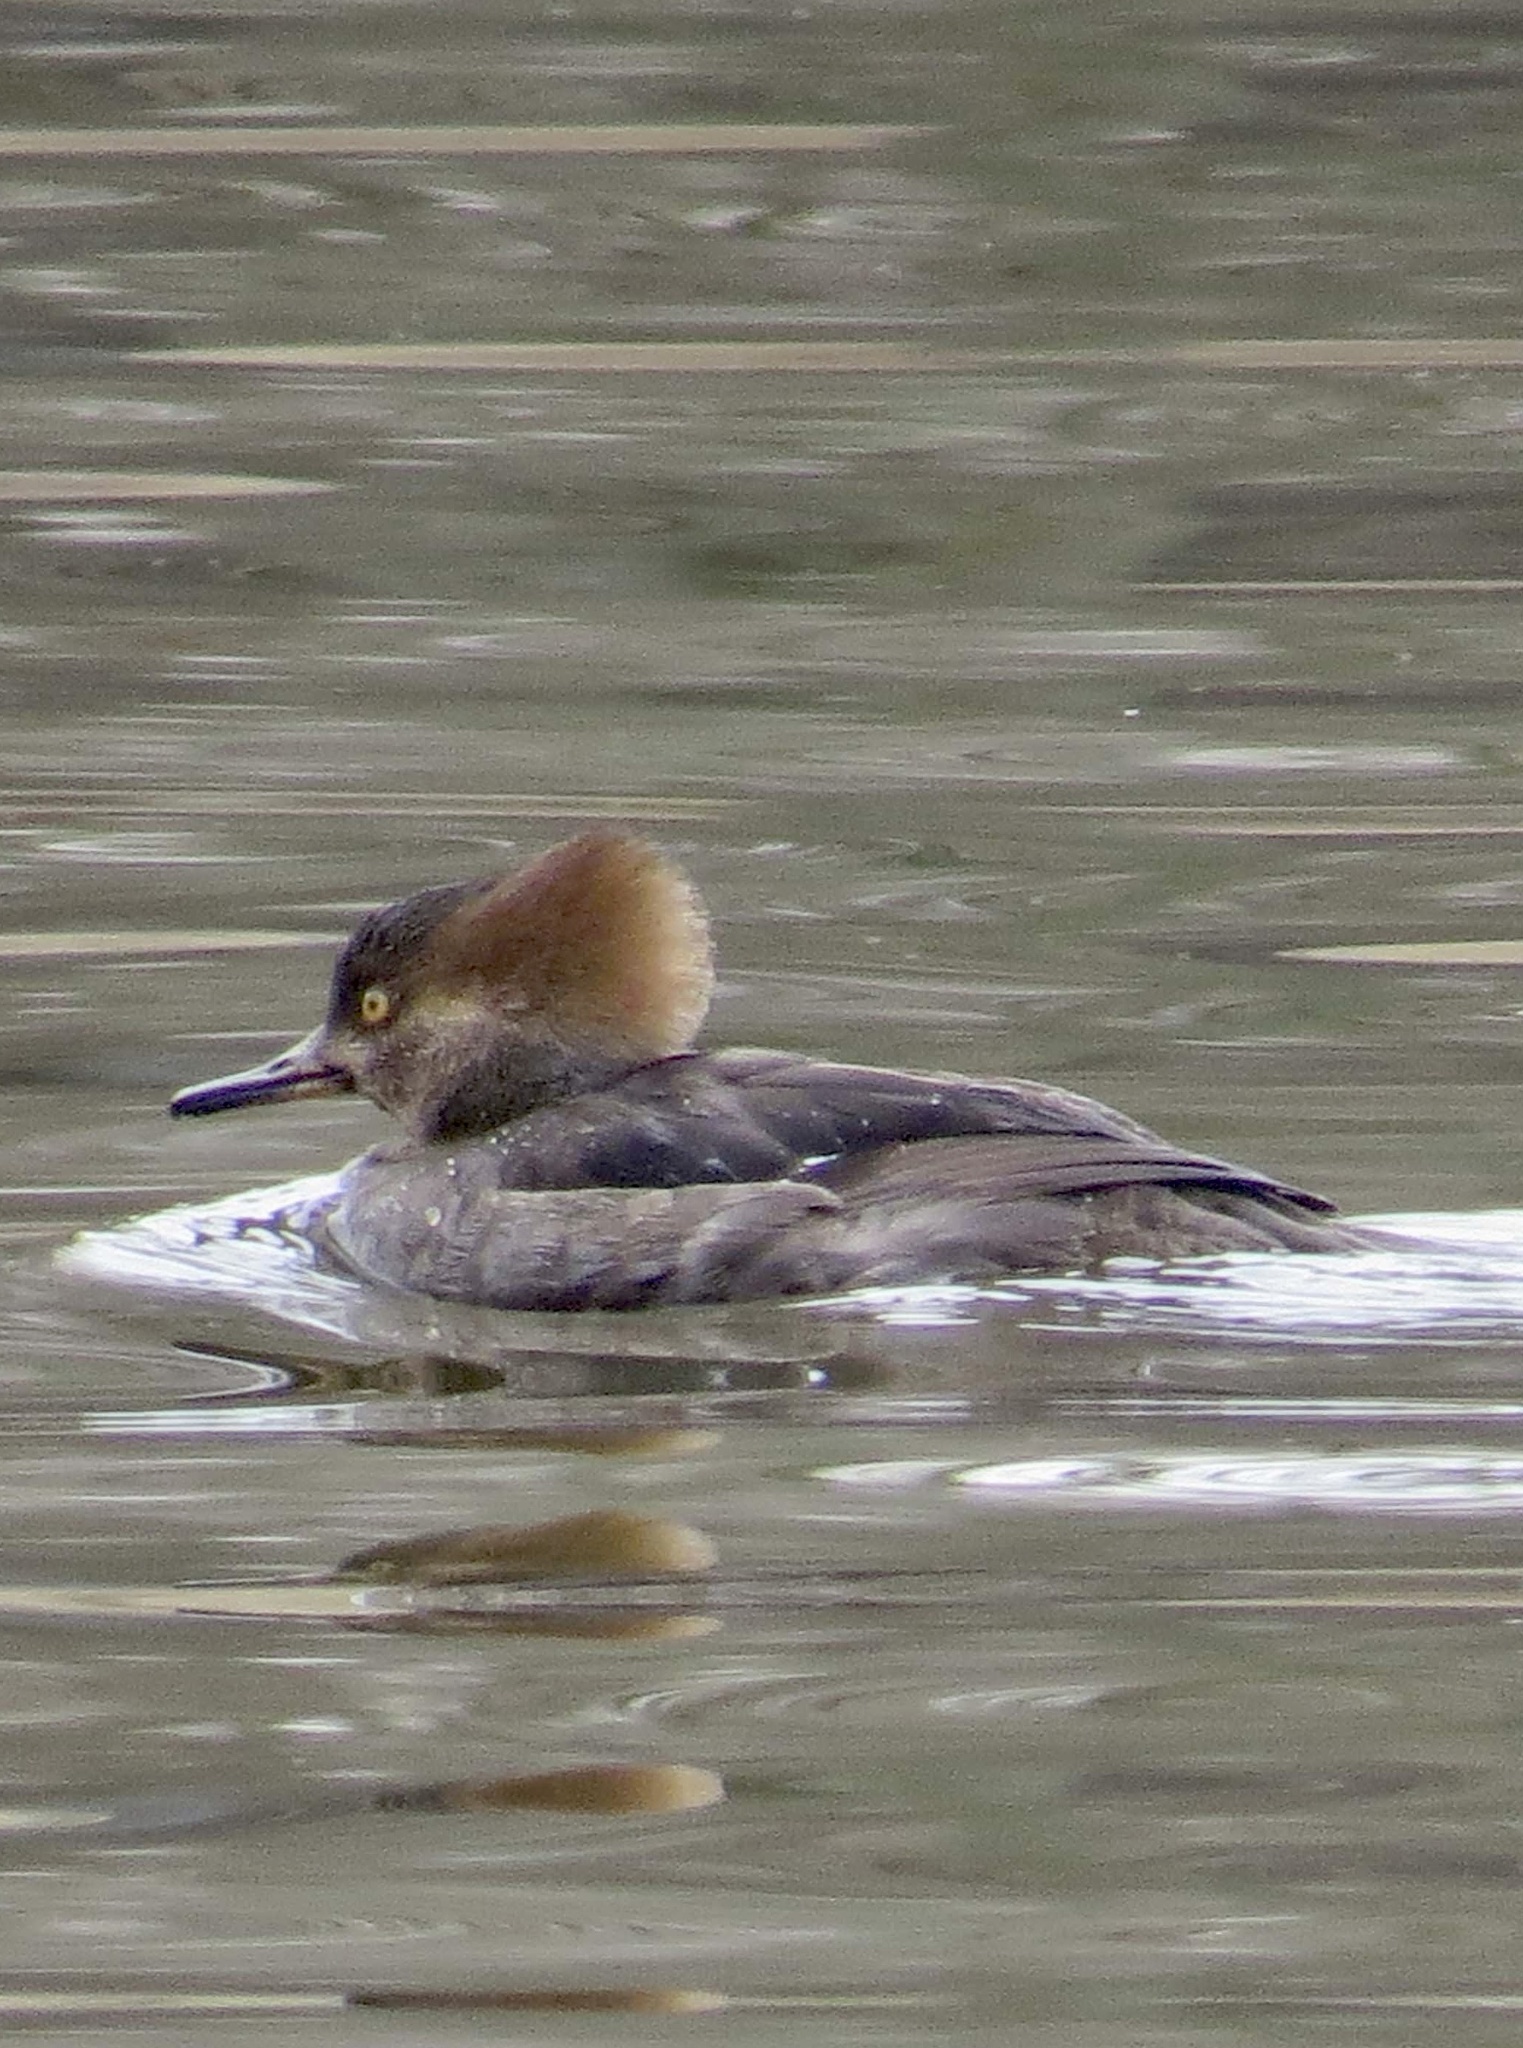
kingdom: Animalia
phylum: Chordata
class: Aves
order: Anseriformes
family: Anatidae
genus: Lophodytes
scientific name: Lophodytes cucullatus
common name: Hooded merganser
